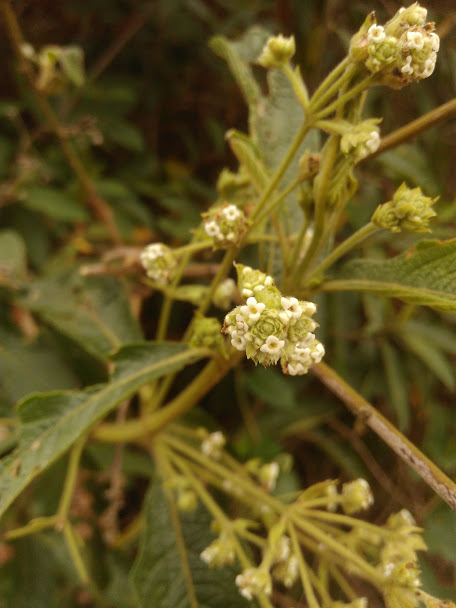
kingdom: Plantae
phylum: Tracheophyta
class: Magnoliopsida
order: Lamiales
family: Verbenaceae
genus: Lippia
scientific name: Lippia hirsuta
